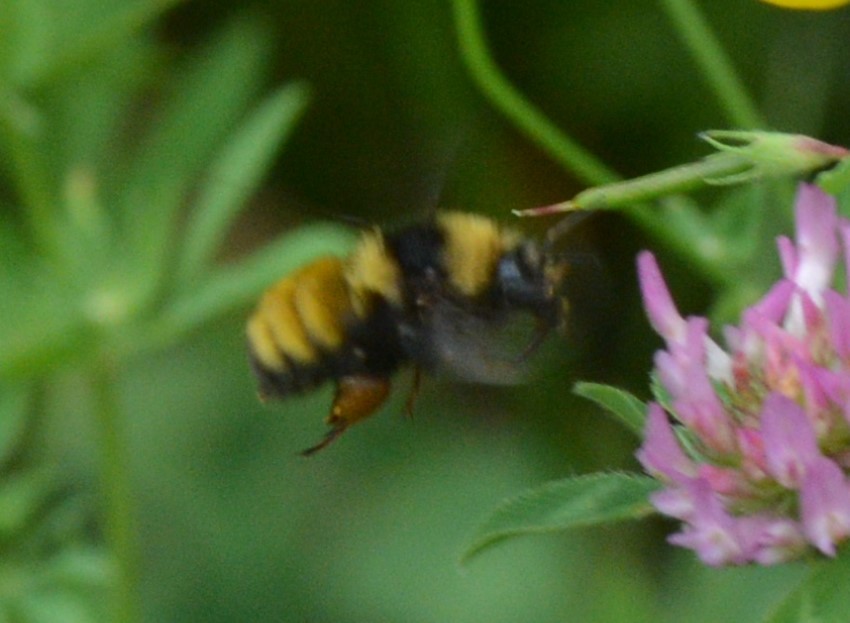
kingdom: Animalia
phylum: Arthropoda
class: Insecta
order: Hymenoptera
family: Apidae
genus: Bombus
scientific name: Bombus borealis
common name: Northern amber bumble bee
